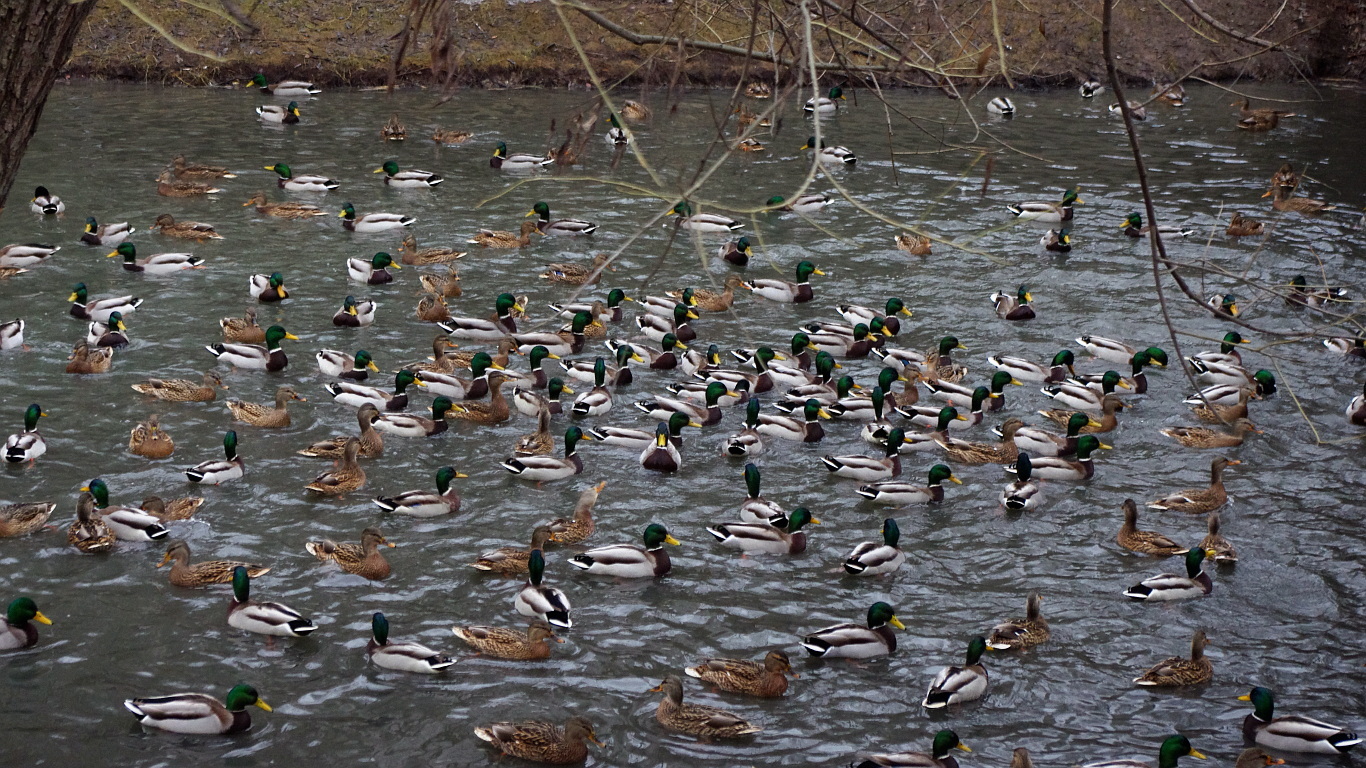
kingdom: Animalia
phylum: Chordata
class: Aves
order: Anseriformes
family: Anatidae
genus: Anas
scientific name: Anas platyrhynchos
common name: Mallard
